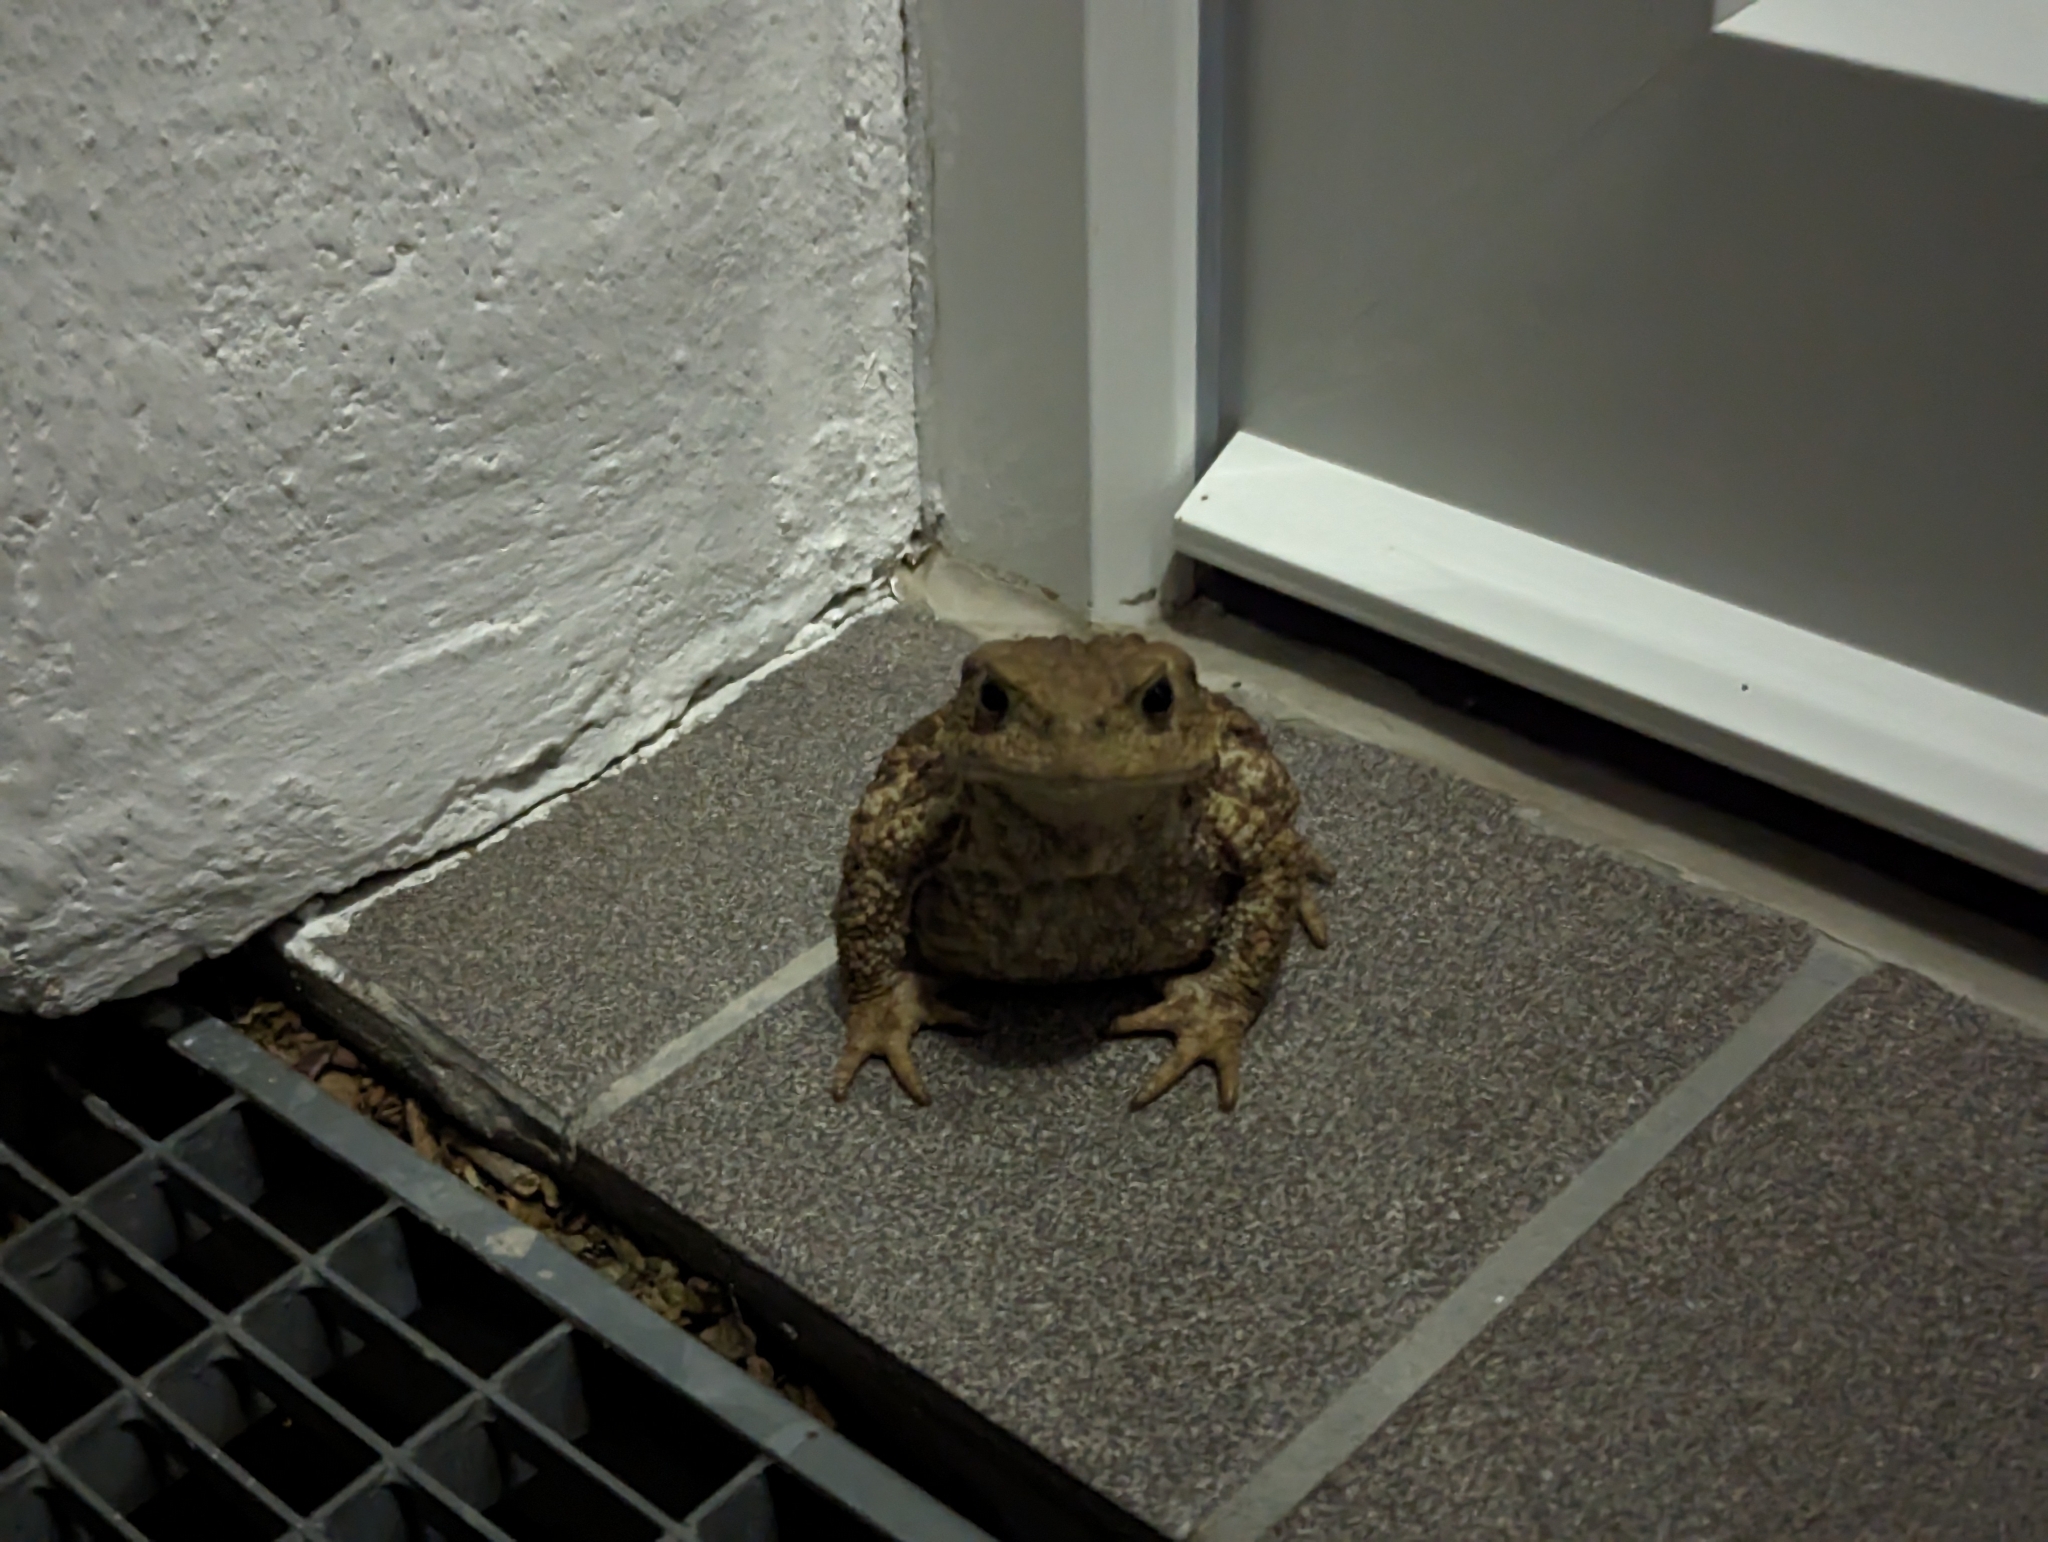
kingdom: Animalia
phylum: Chordata
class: Amphibia
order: Anura
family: Bufonidae
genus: Bufo
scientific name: Bufo bufo
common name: Common toad
